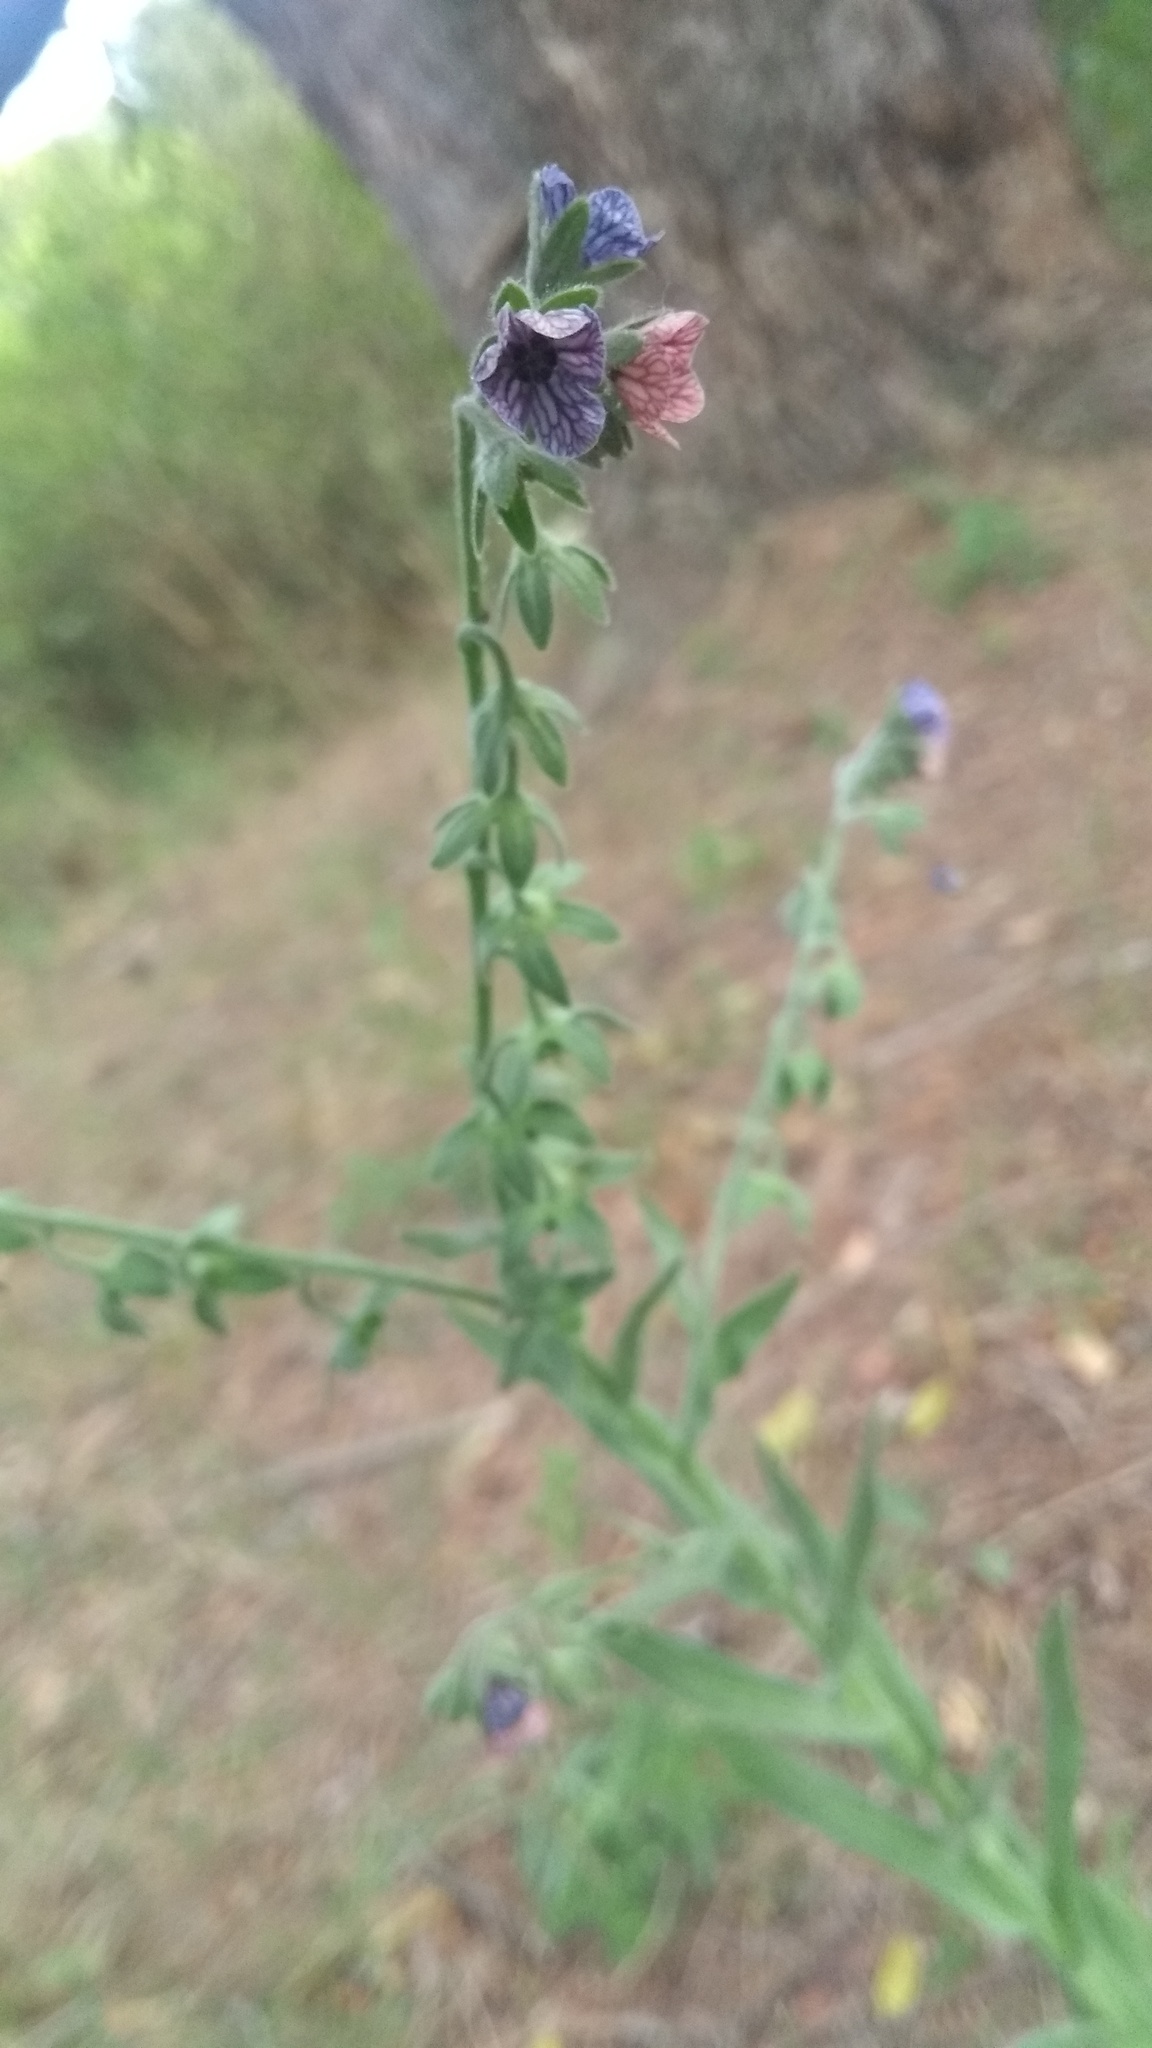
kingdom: Plantae
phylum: Tracheophyta
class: Magnoliopsida
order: Boraginales
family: Boraginaceae
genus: Cynoglossum
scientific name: Cynoglossum creticum
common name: Blue hound's tongue
